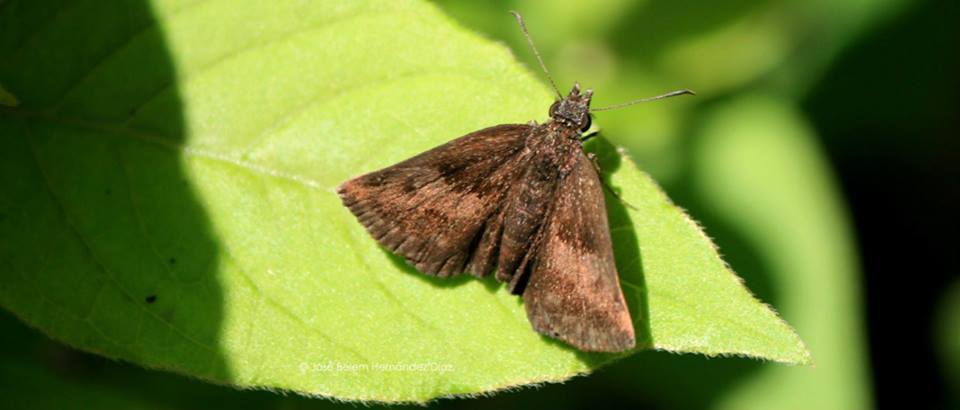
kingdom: Animalia
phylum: Arthropoda
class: Insecta
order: Lepidoptera
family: Hesperiidae
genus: Staphylus
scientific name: Staphylus
